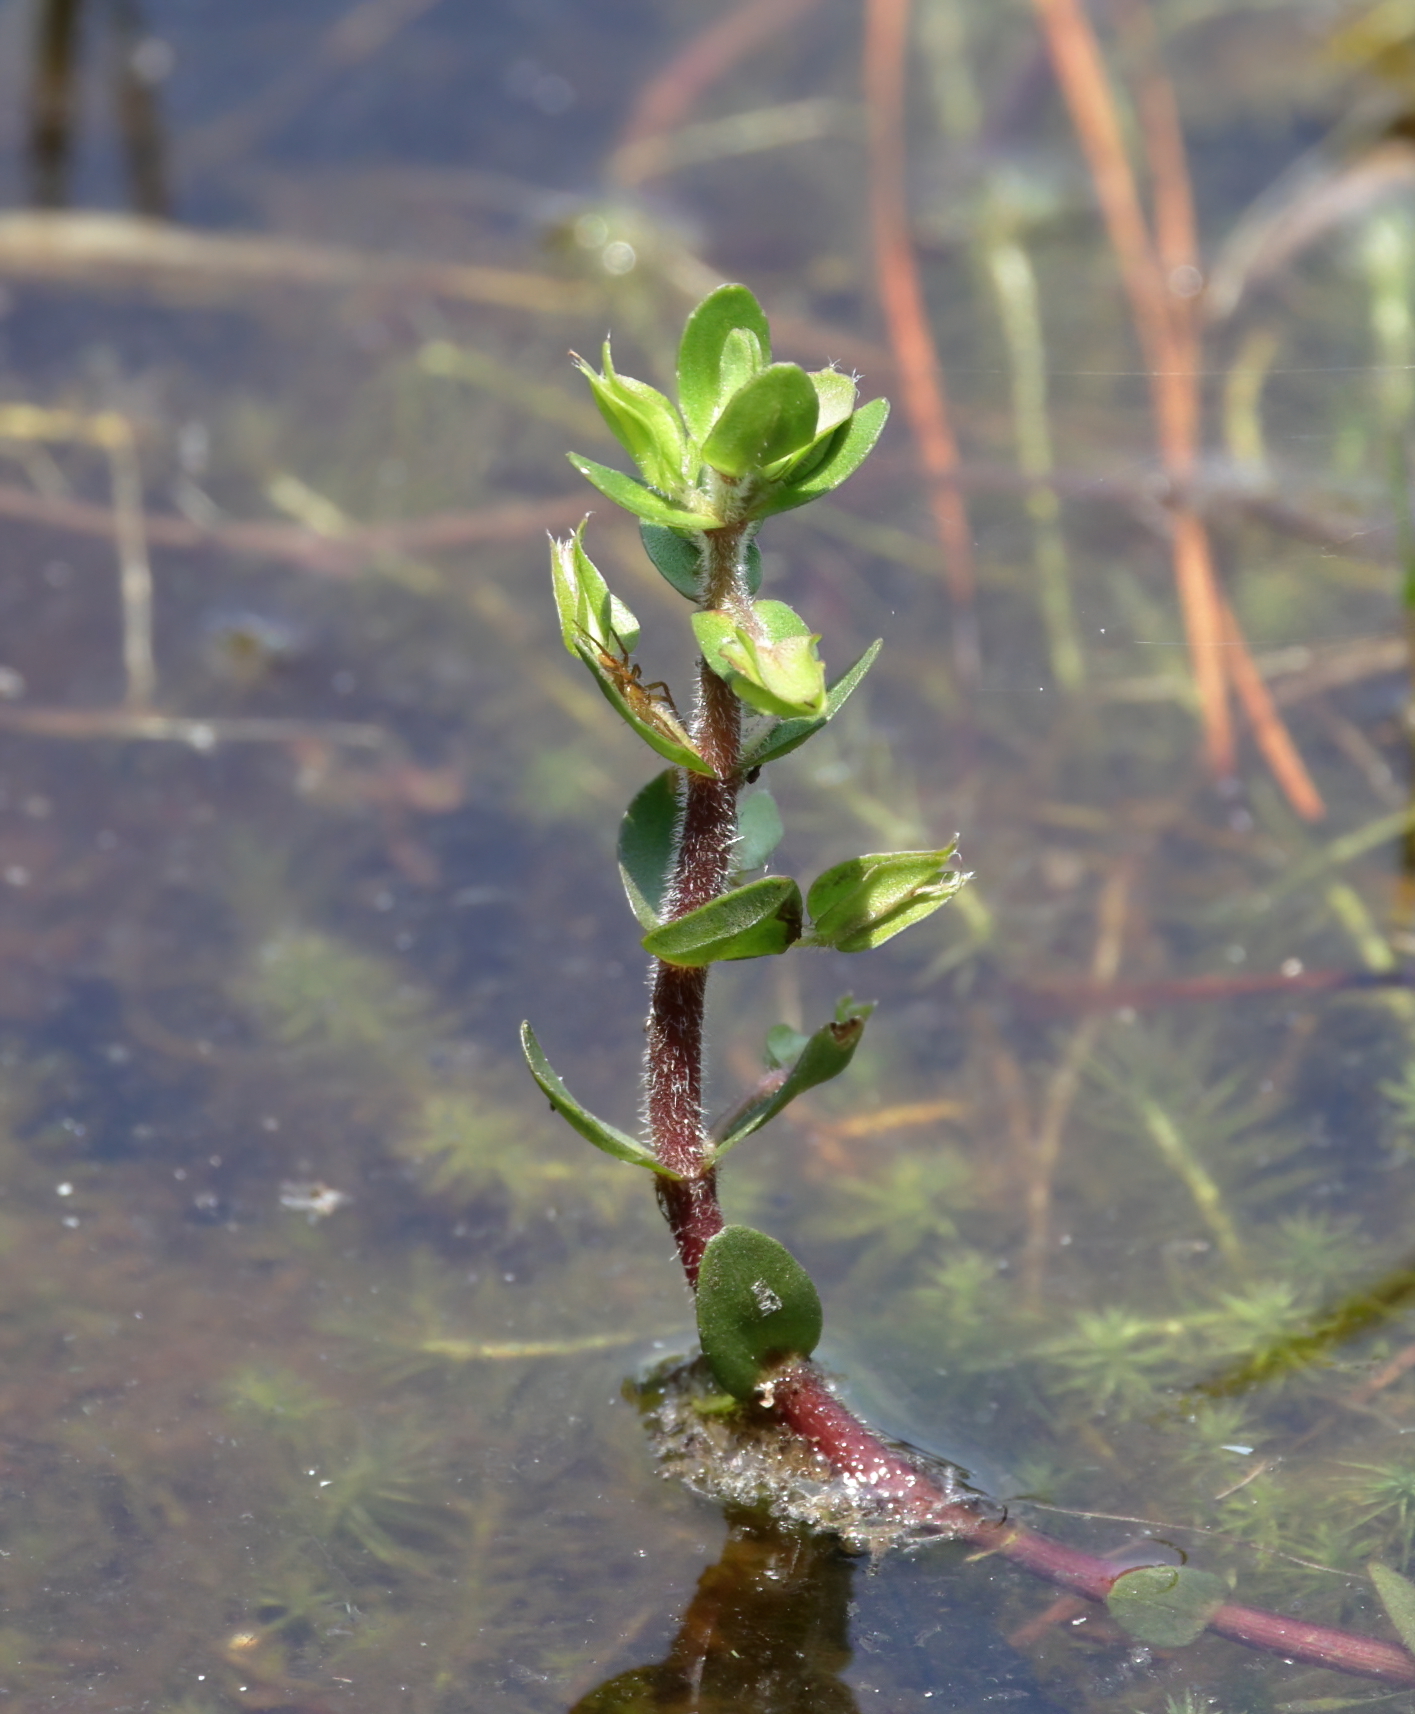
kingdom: Plantae
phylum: Tracheophyta
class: Magnoliopsida
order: Lamiales
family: Plantaginaceae
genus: Bacopa
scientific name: Bacopa caroliniana
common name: Lemon bacopa
